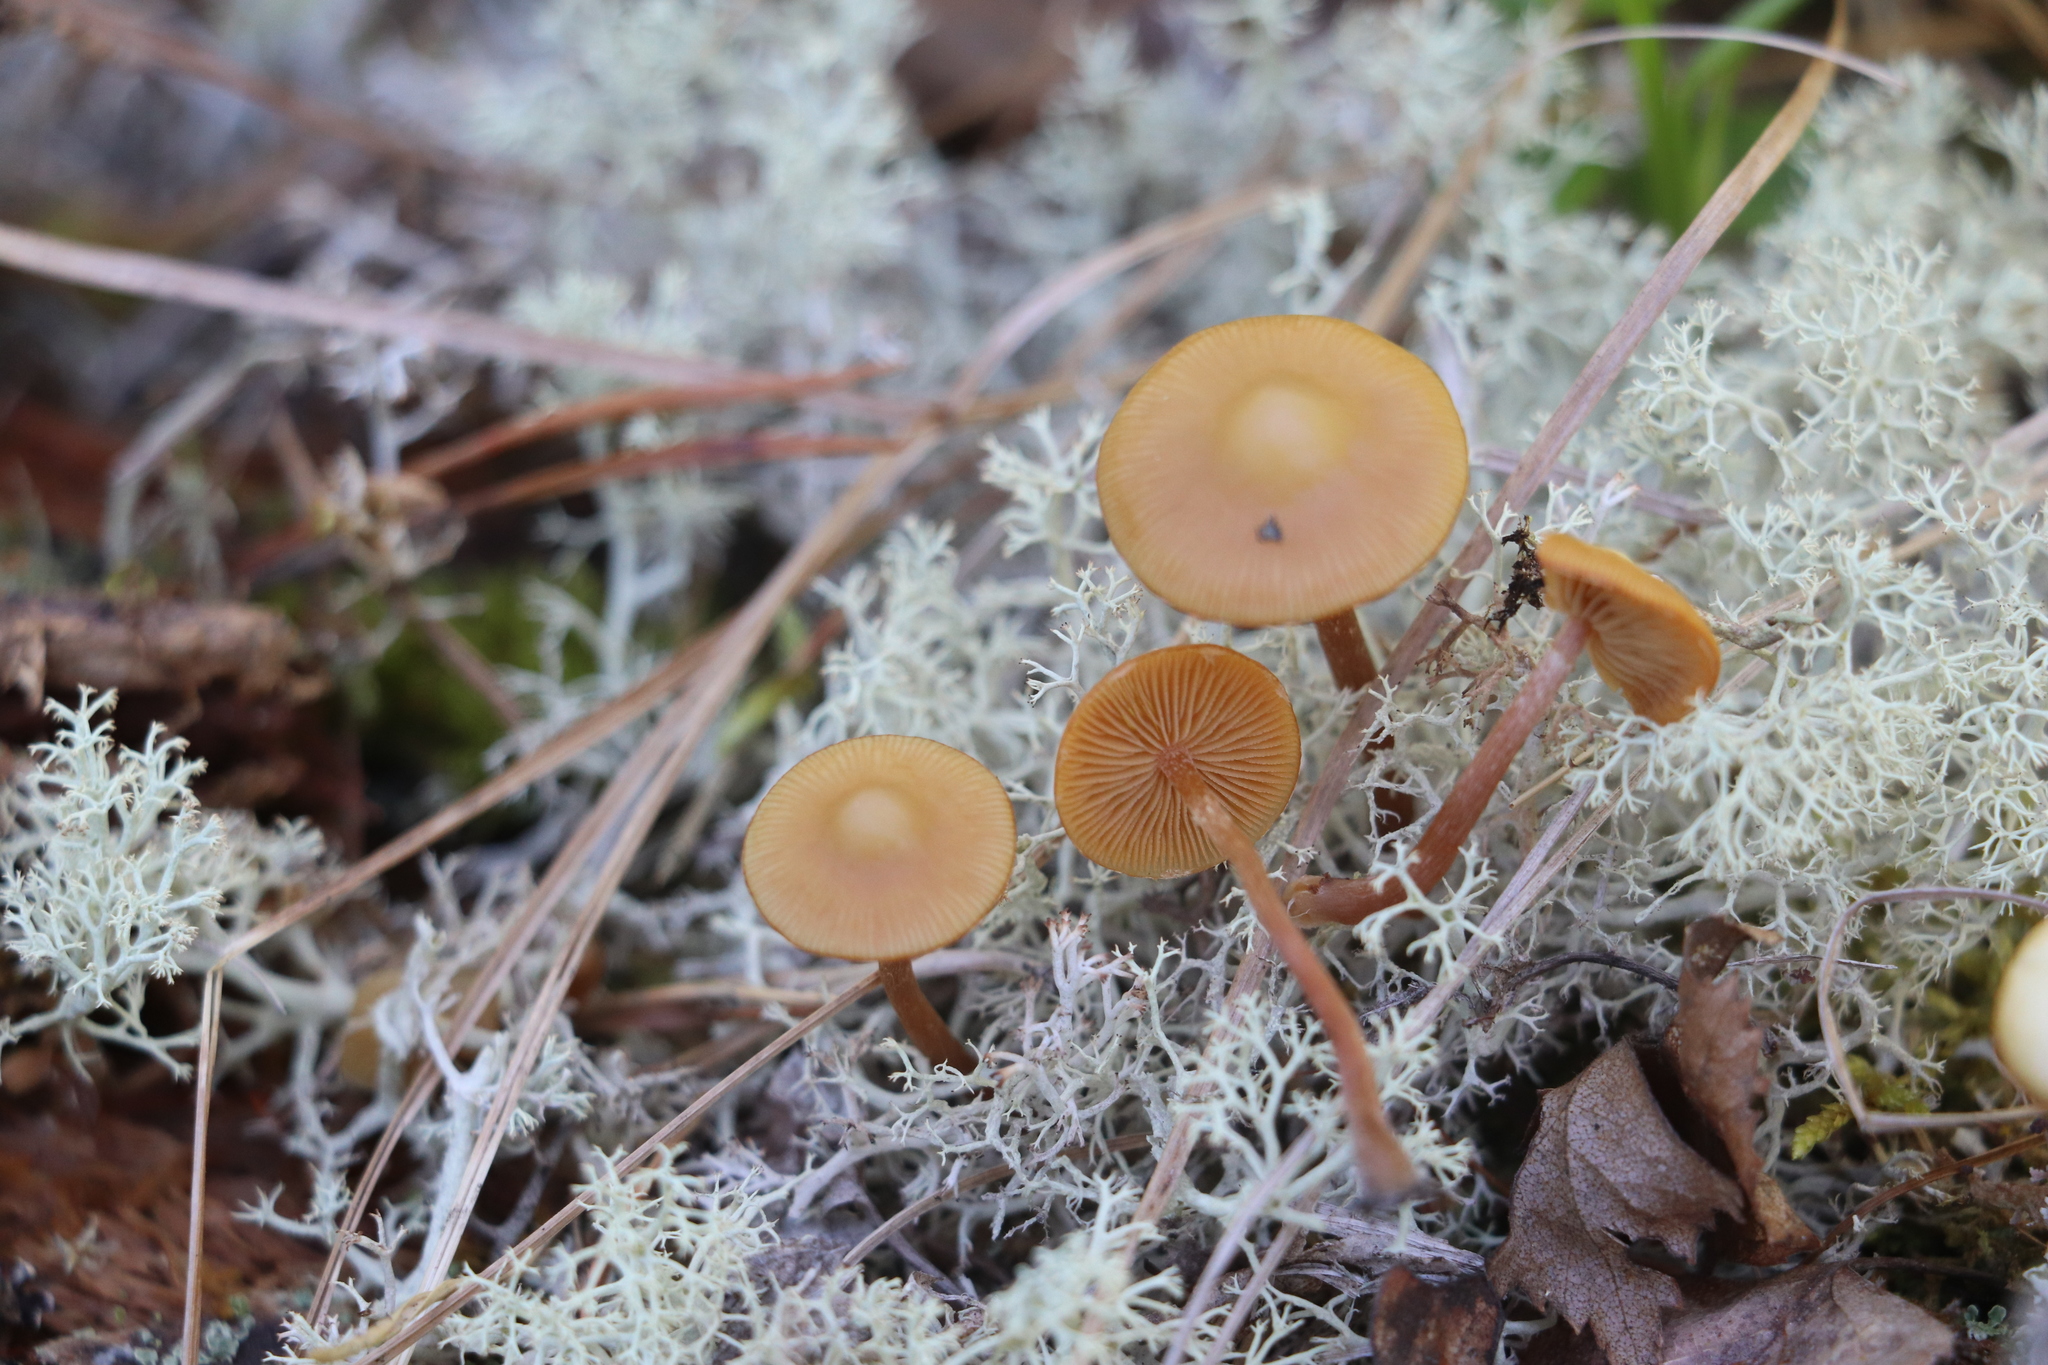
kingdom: Fungi
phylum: Basidiomycota
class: Agaricomycetes
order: Agaricales
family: Strophariaceae
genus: Pholiota
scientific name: Pholiota lignicola
